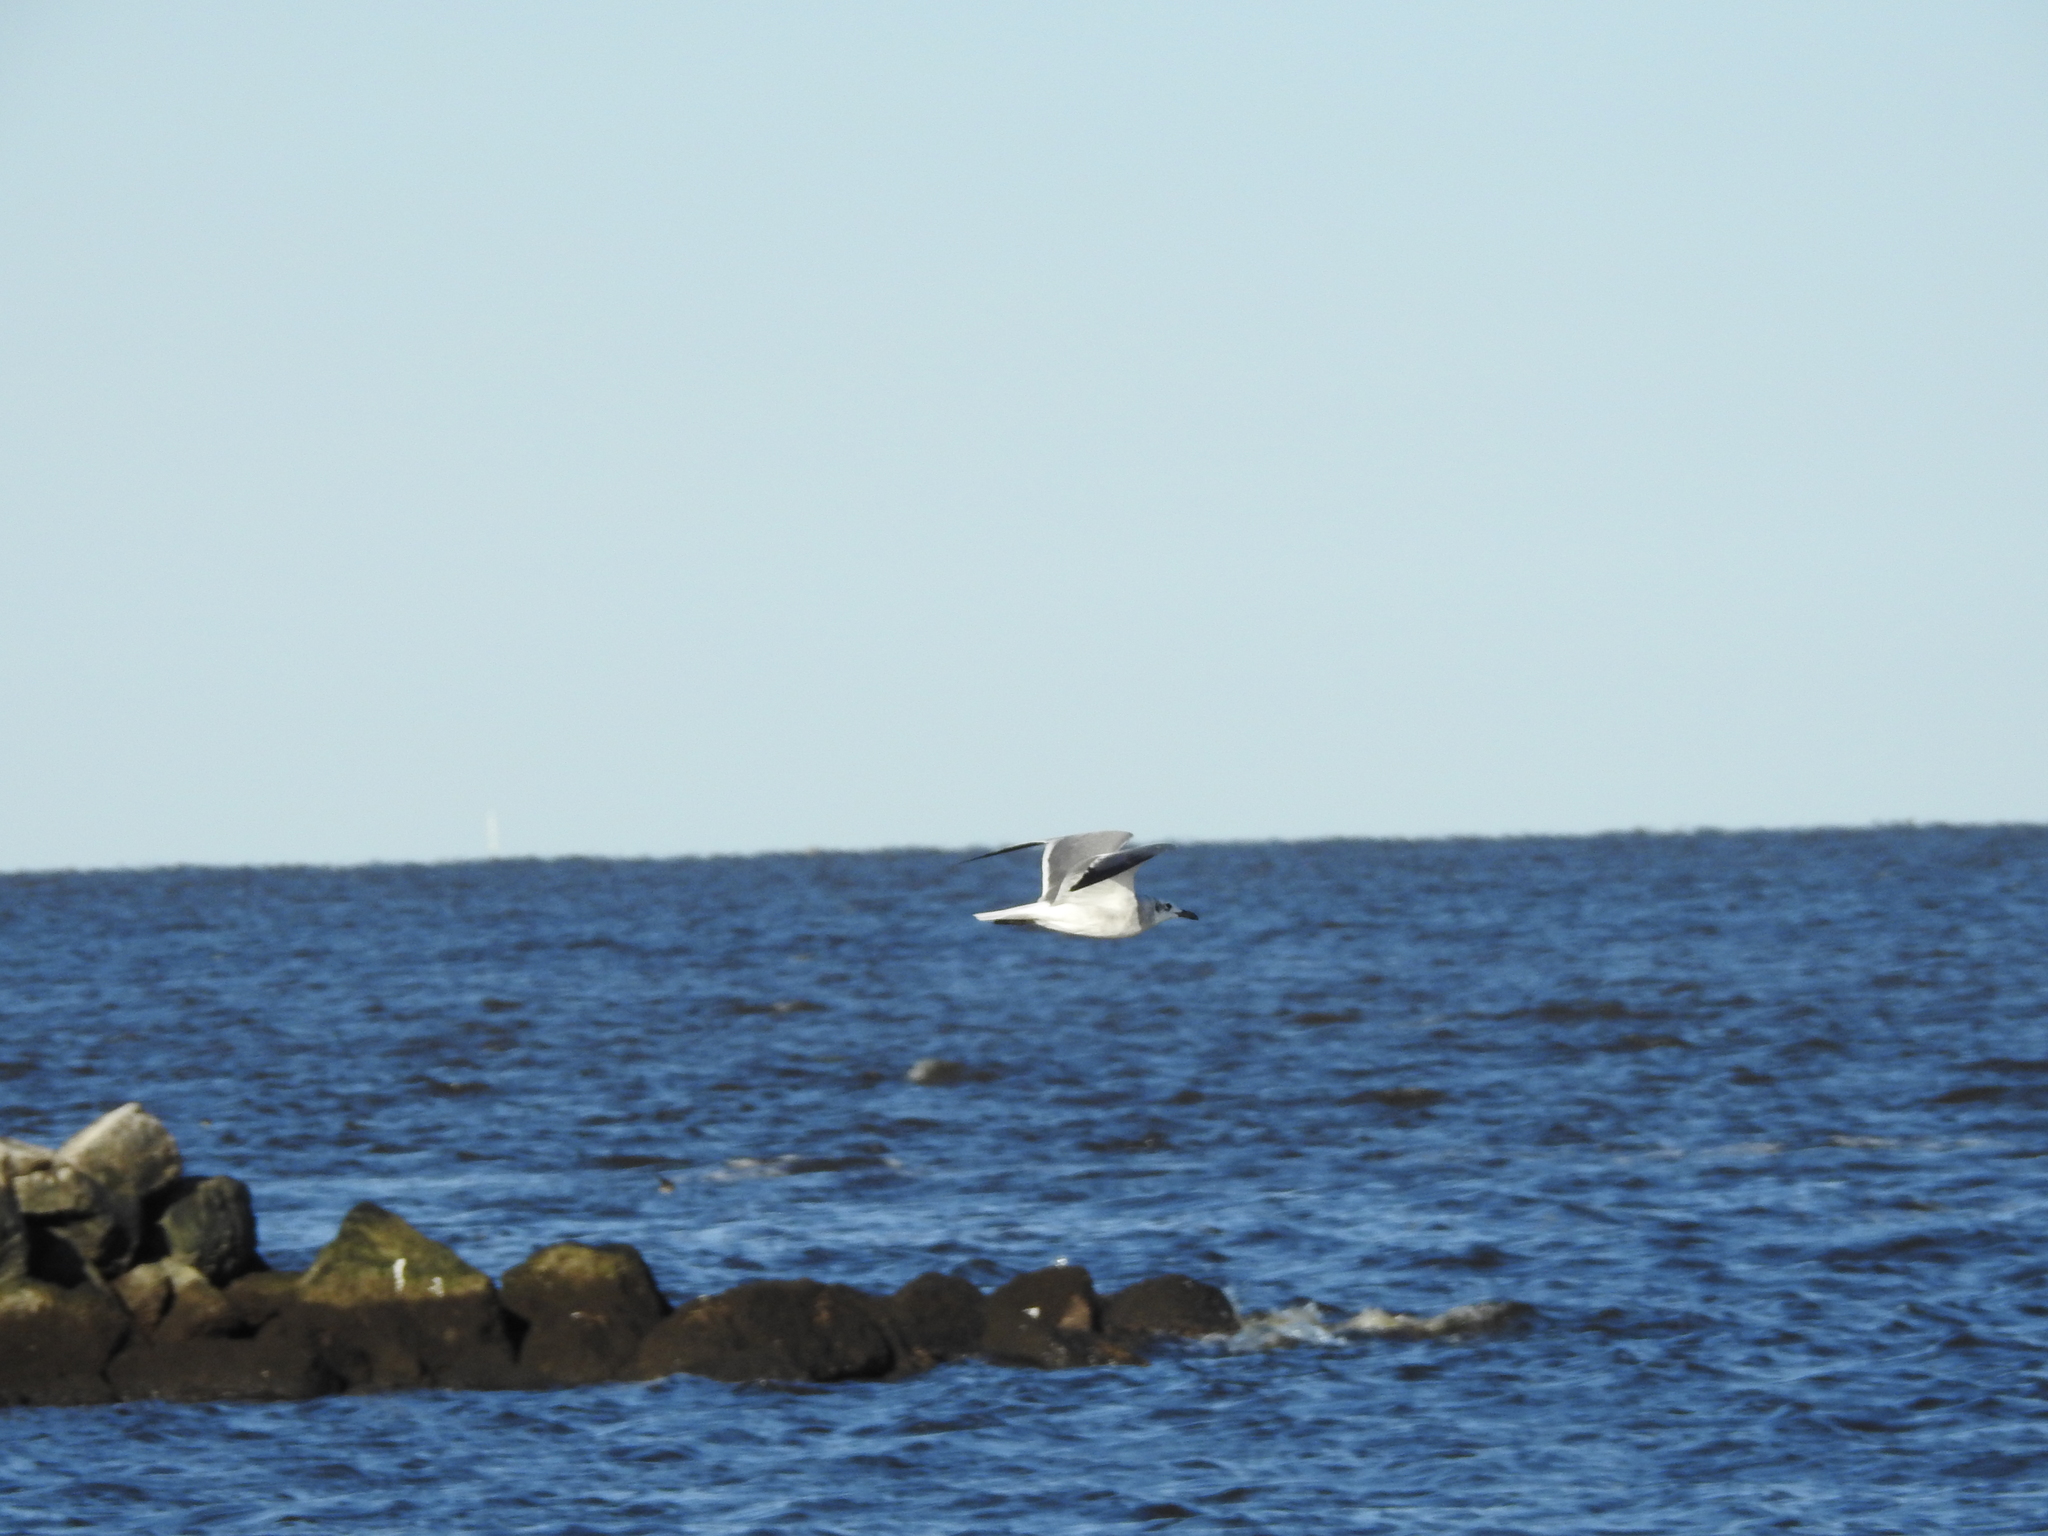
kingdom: Animalia
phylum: Chordata
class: Aves
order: Charadriiformes
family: Laridae
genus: Leucophaeus
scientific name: Leucophaeus atricilla
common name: Laughing gull
